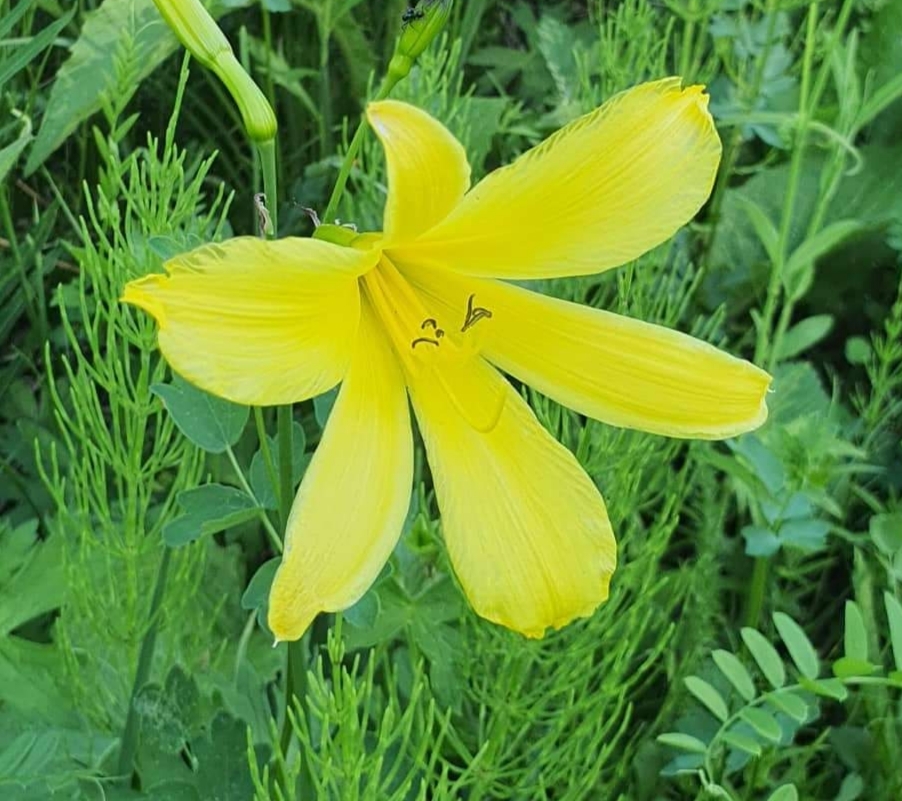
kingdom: Plantae
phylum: Tracheophyta
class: Liliopsida
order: Asparagales
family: Asphodelaceae
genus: Hemerocallis
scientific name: Hemerocallis minor
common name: Small daylily
